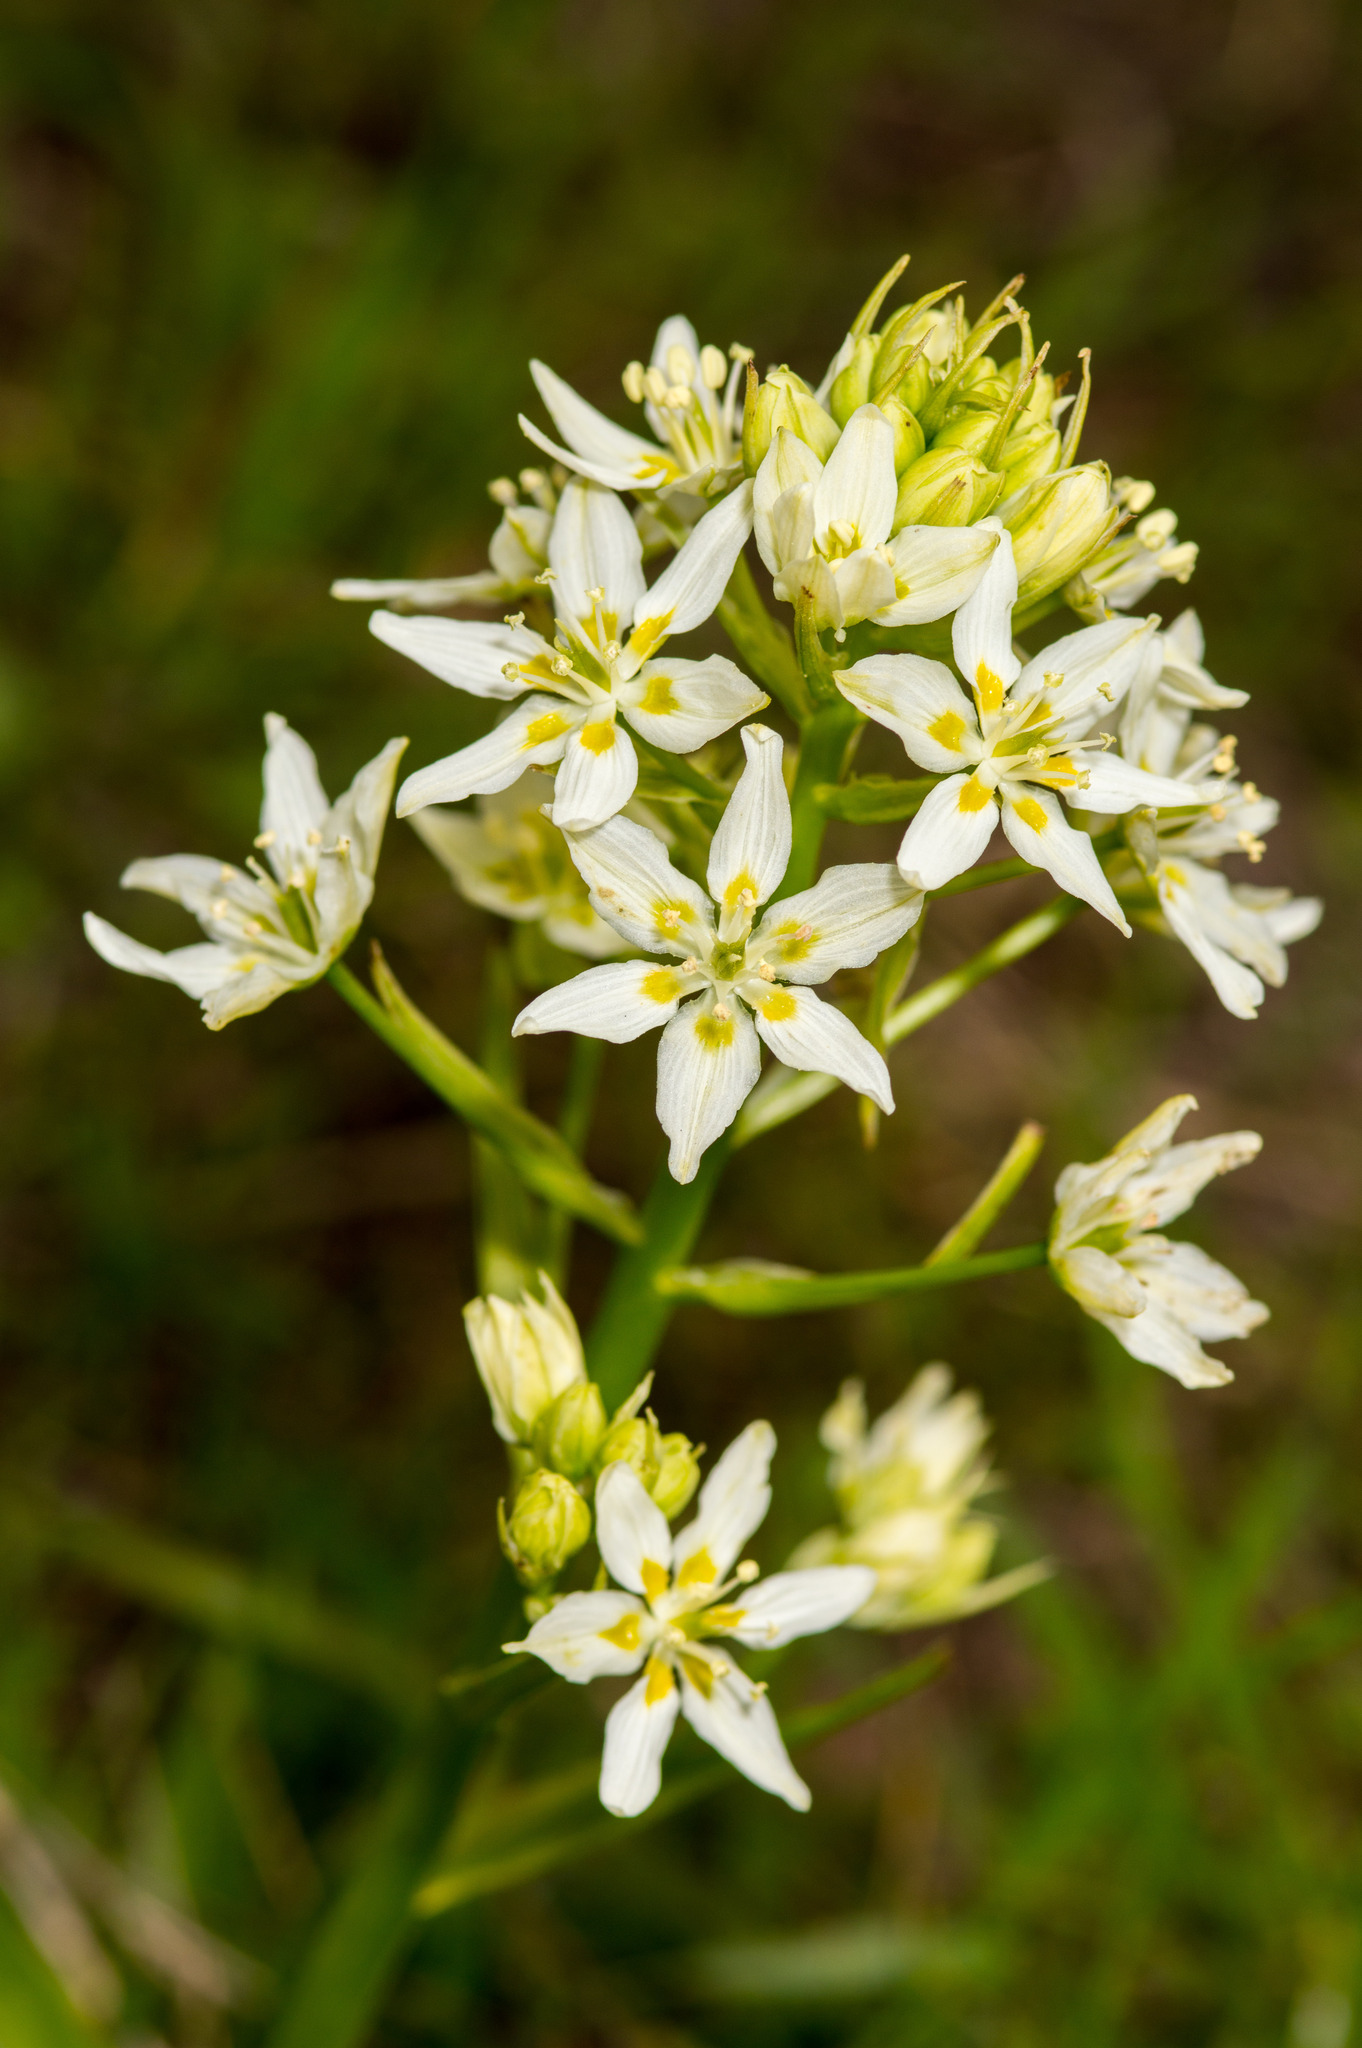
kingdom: Plantae
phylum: Tracheophyta
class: Liliopsida
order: Liliales
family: Melanthiaceae
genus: Toxicoscordion
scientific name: Toxicoscordion fremontii
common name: Fremont's death camas
